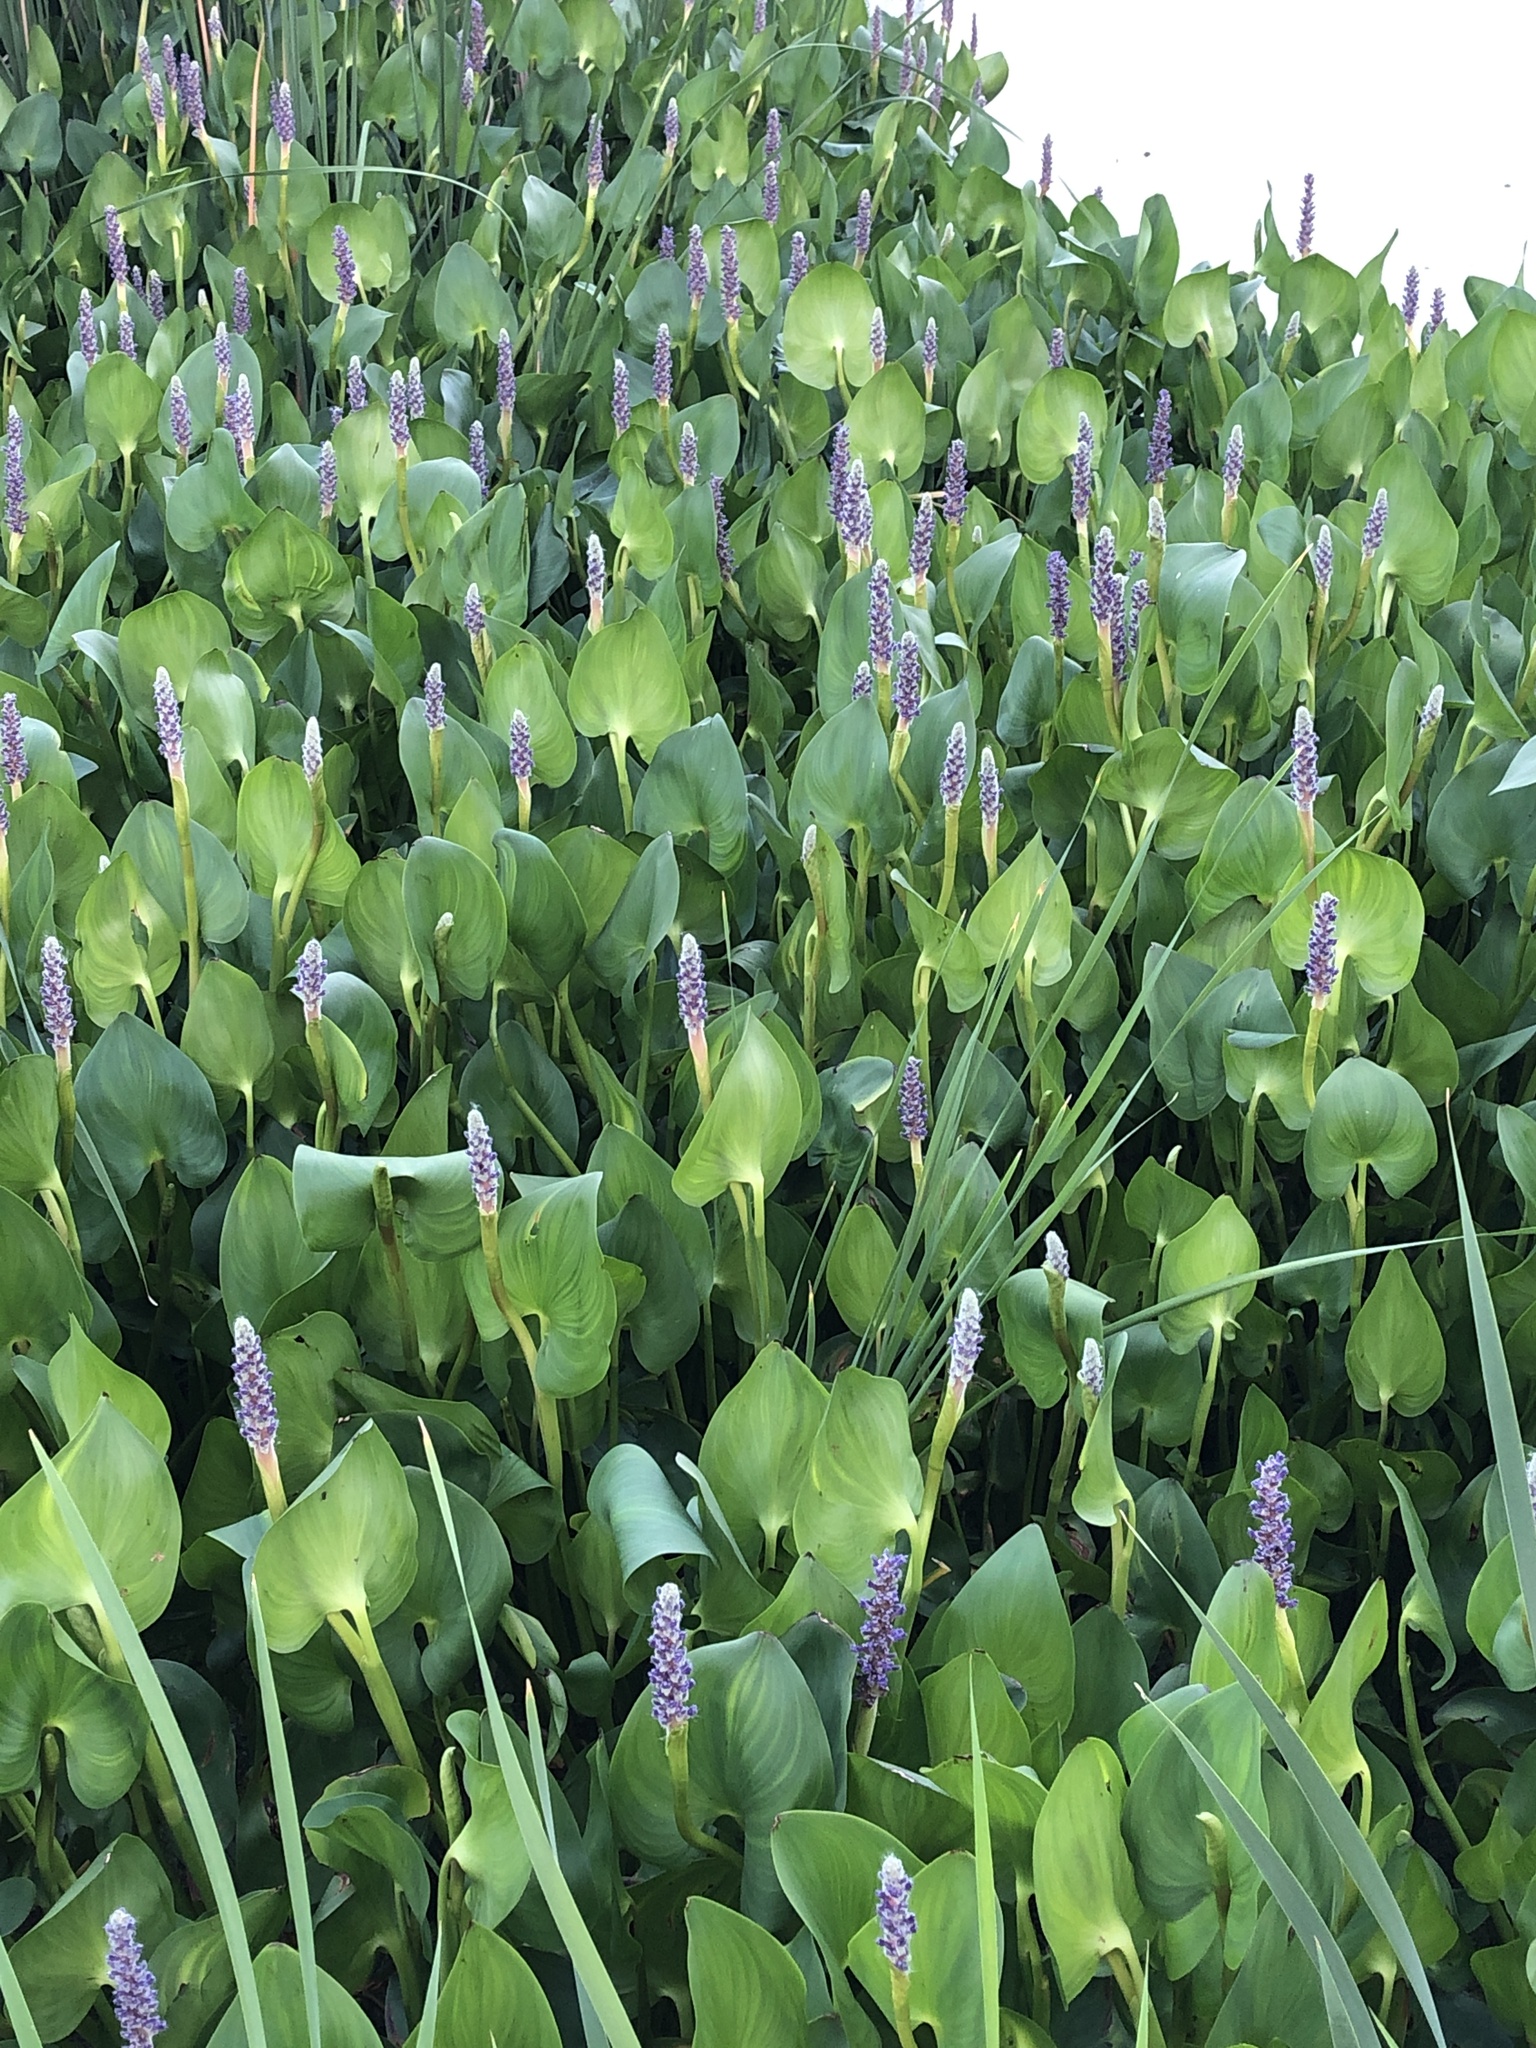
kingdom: Plantae
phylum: Tracheophyta
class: Liliopsida
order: Commelinales
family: Pontederiaceae
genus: Pontederia
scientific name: Pontederia cordata
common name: Pickerelweed
